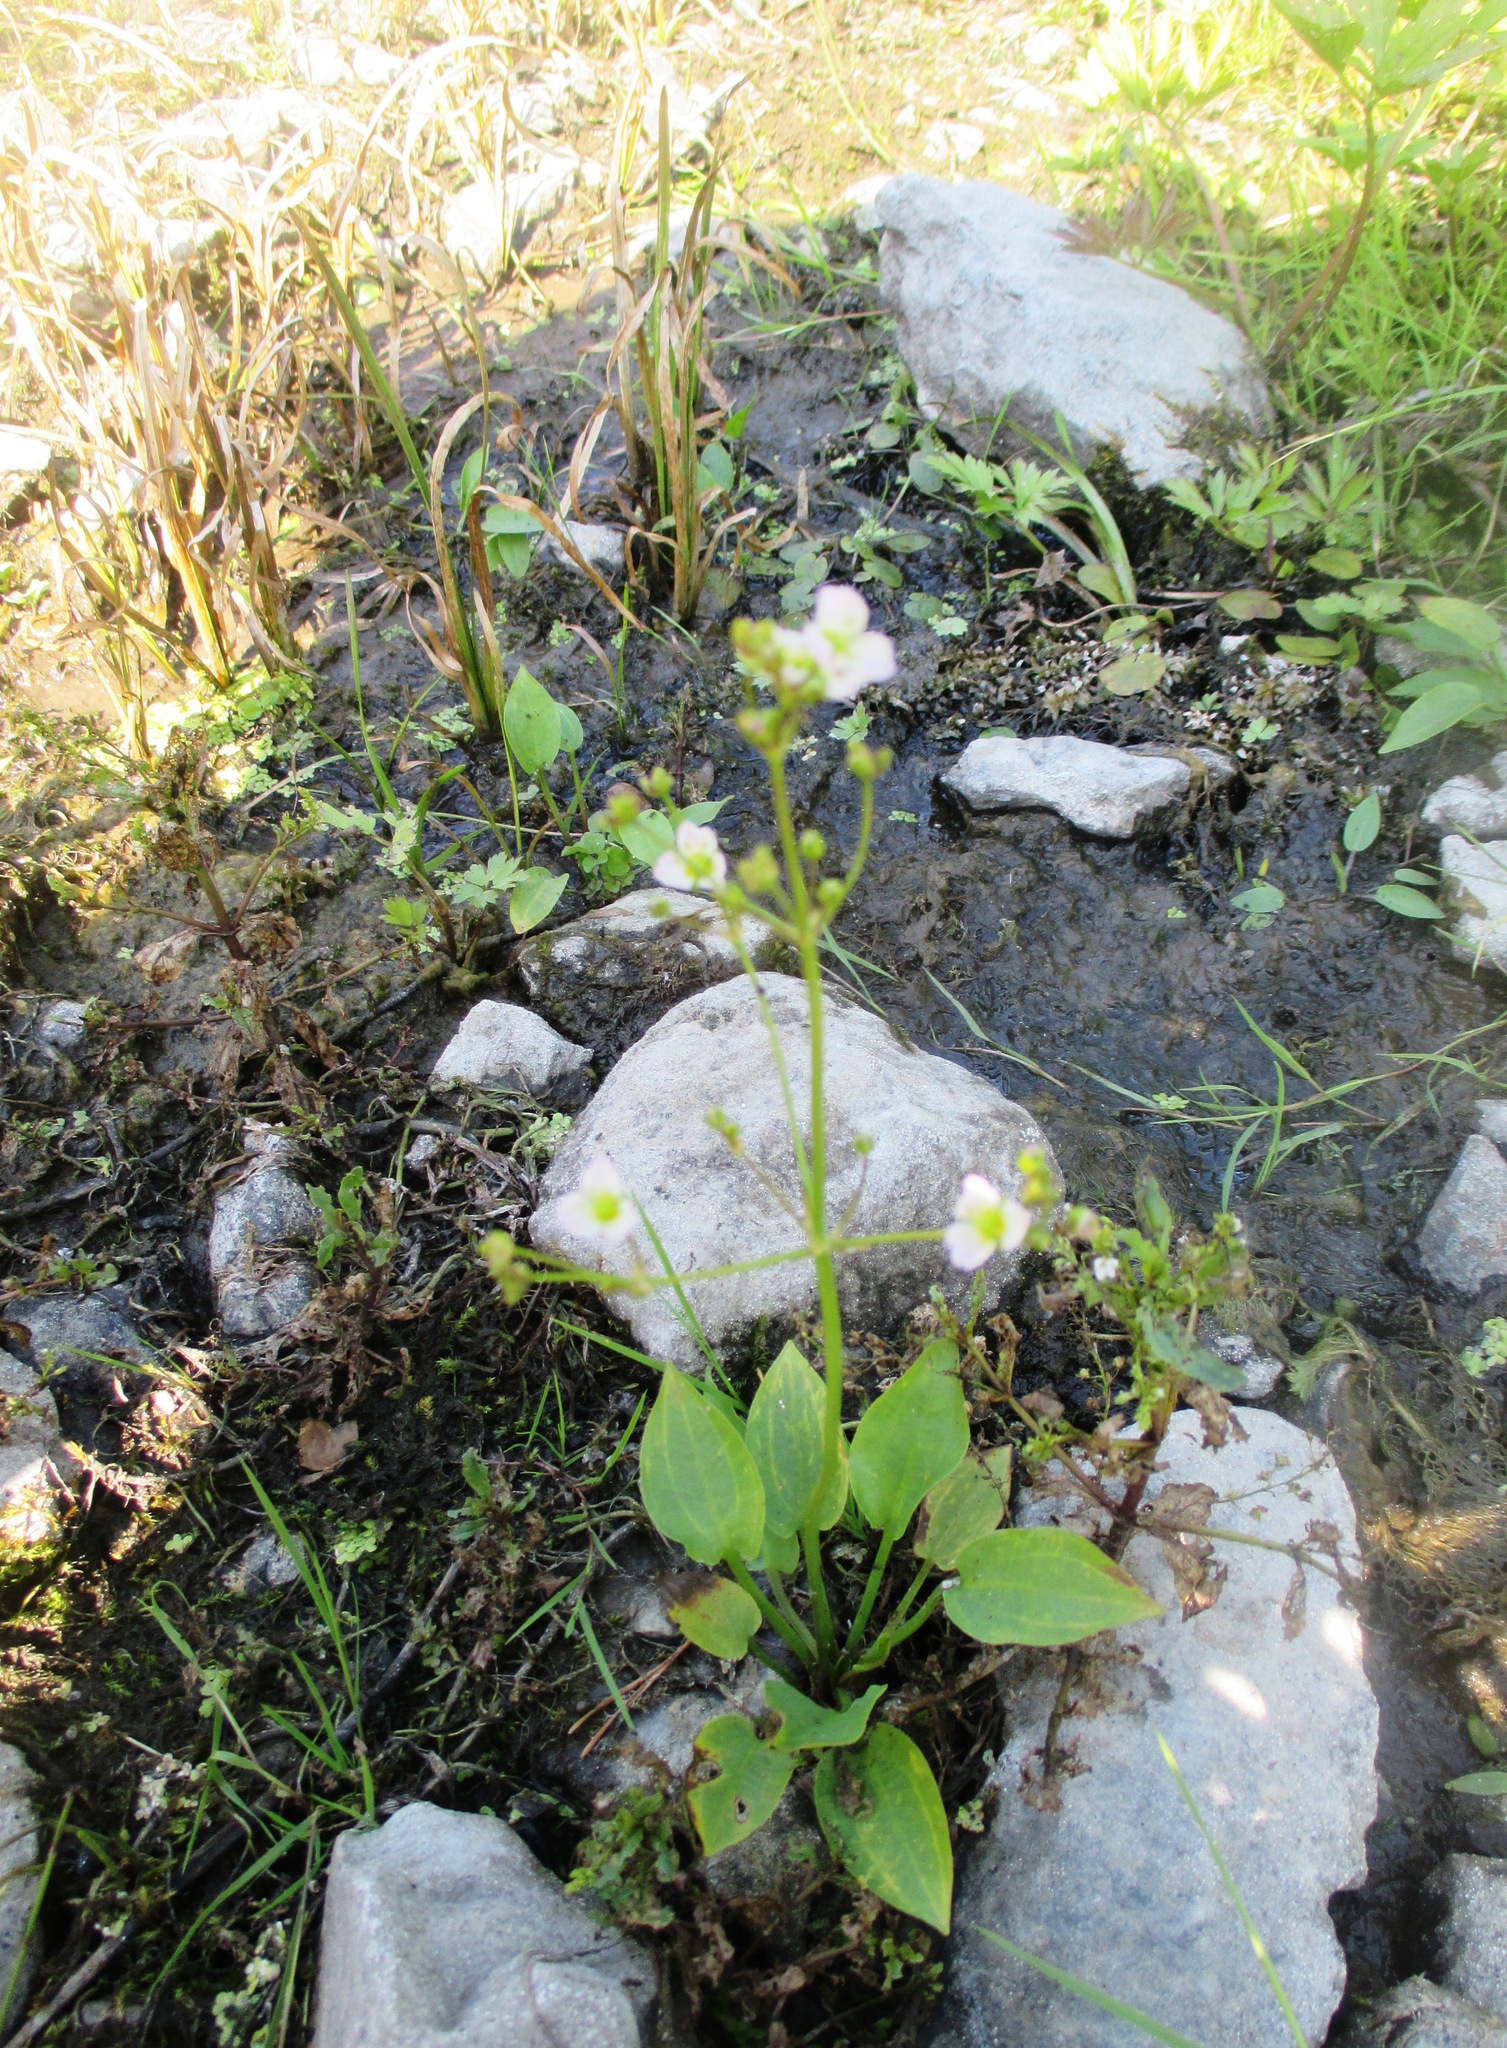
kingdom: Plantae
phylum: Tracheophyta
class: Liliopsida
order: Alismatales
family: Alismataceae
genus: Alisma
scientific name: Alisma plantago-aquatica
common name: Water-plantain
